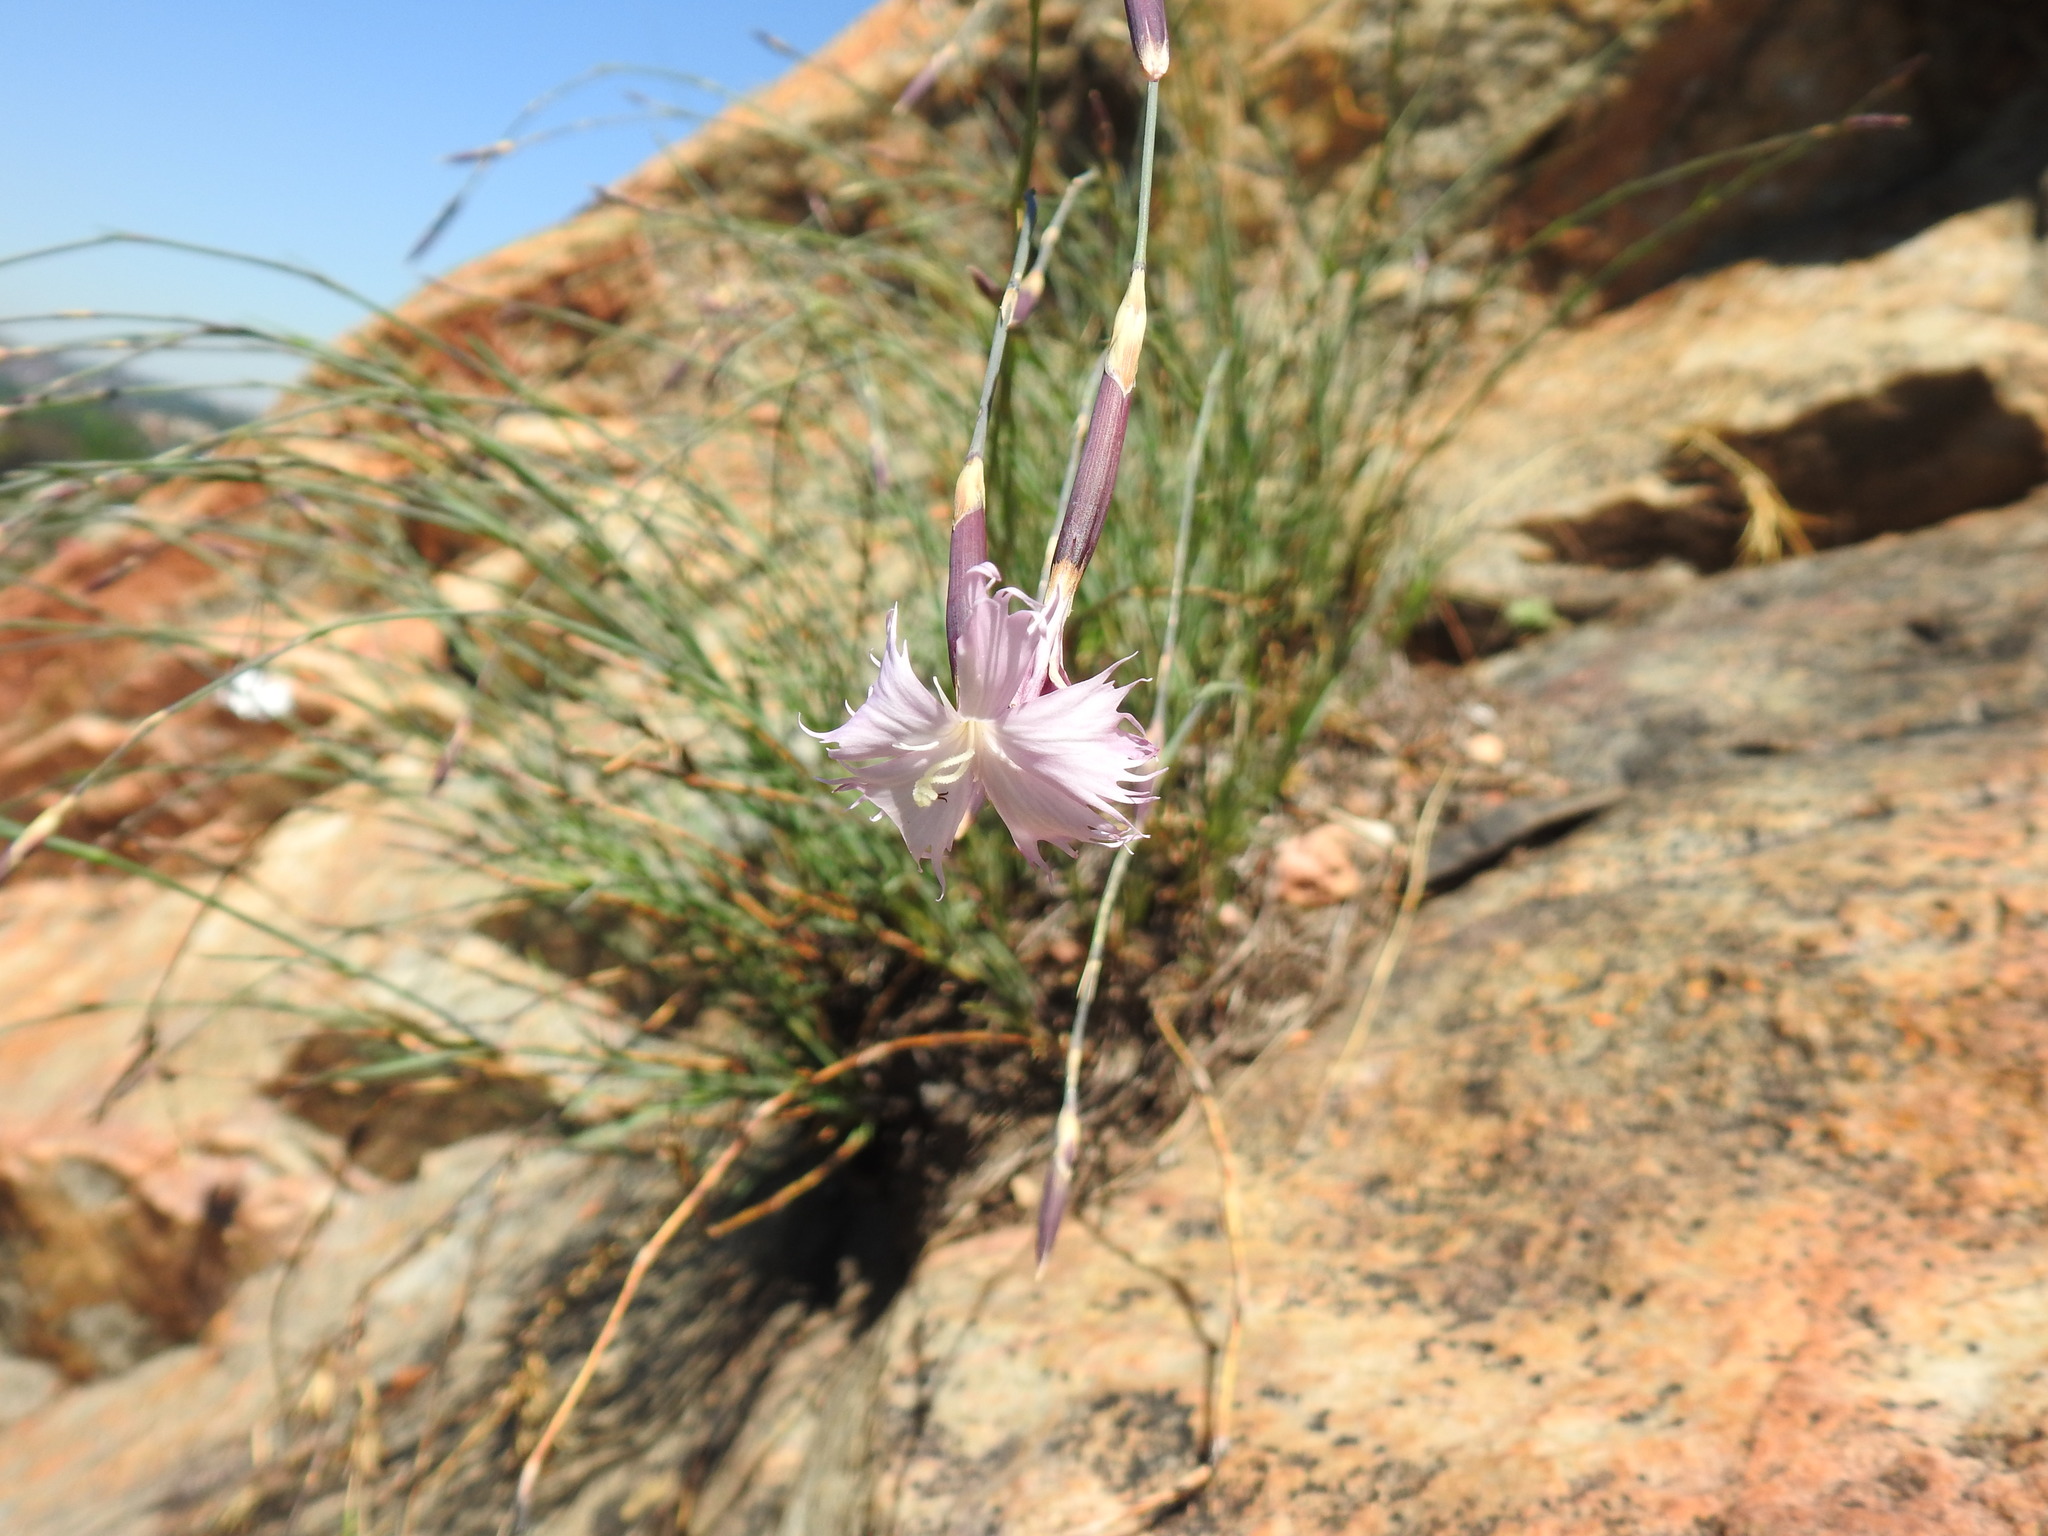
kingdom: Plantae
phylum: Tracheophyta
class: Magnoliopsida
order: Caryophyllales
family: Caryophyllaceae
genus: Dianthus
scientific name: Dianthus mooiensis
